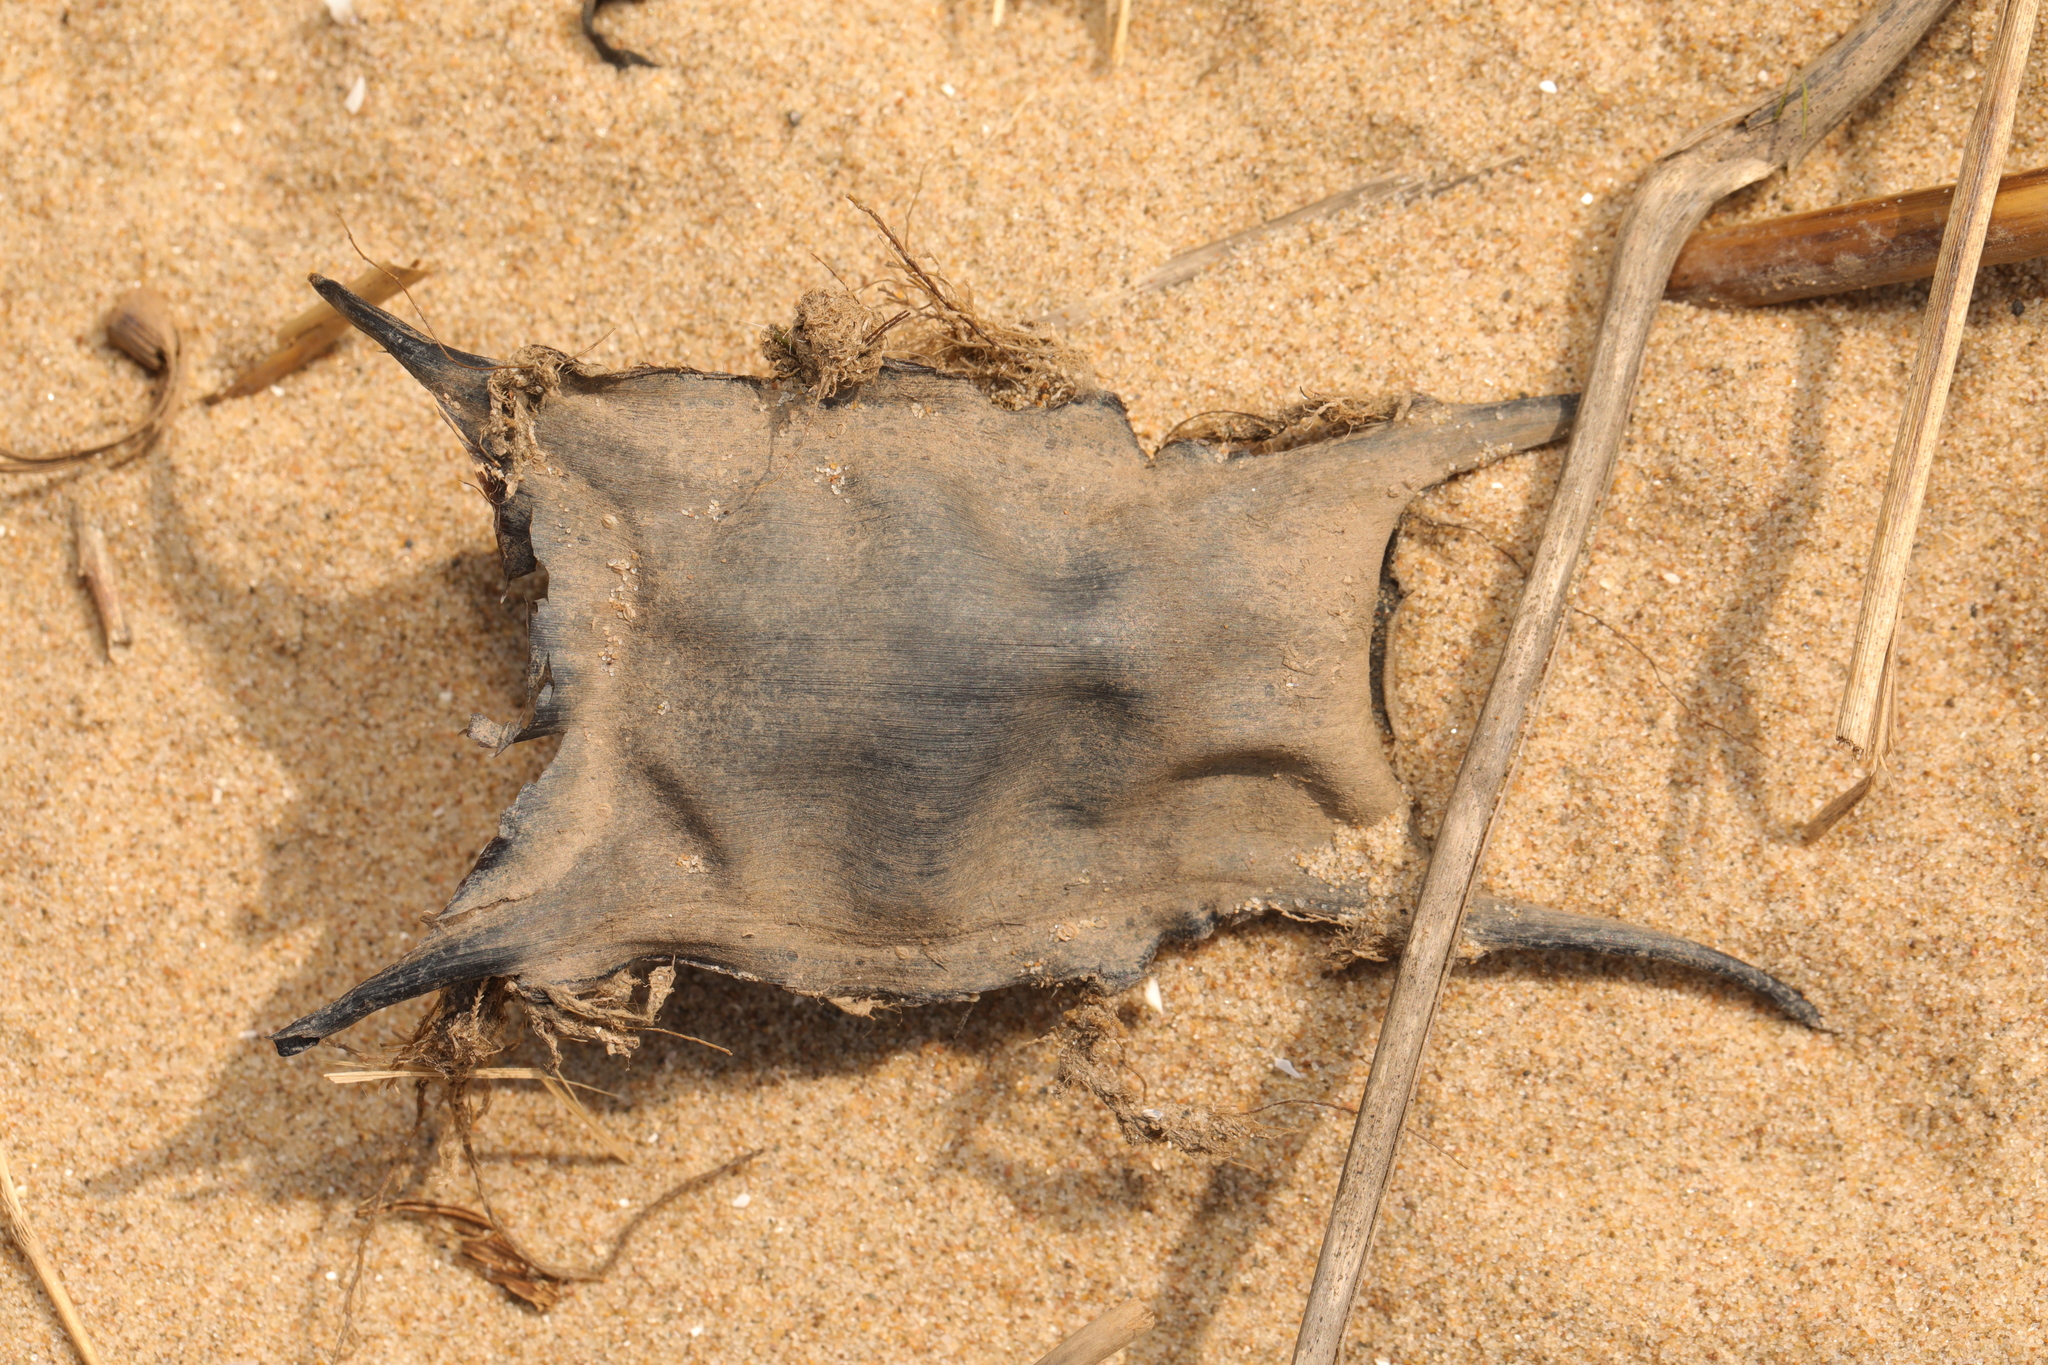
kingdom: Animalia
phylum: Chordata
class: Elasmobranchii
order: Rajiformes
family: Rajidae
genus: Raja
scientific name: Raja clavata
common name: Thornback ray
